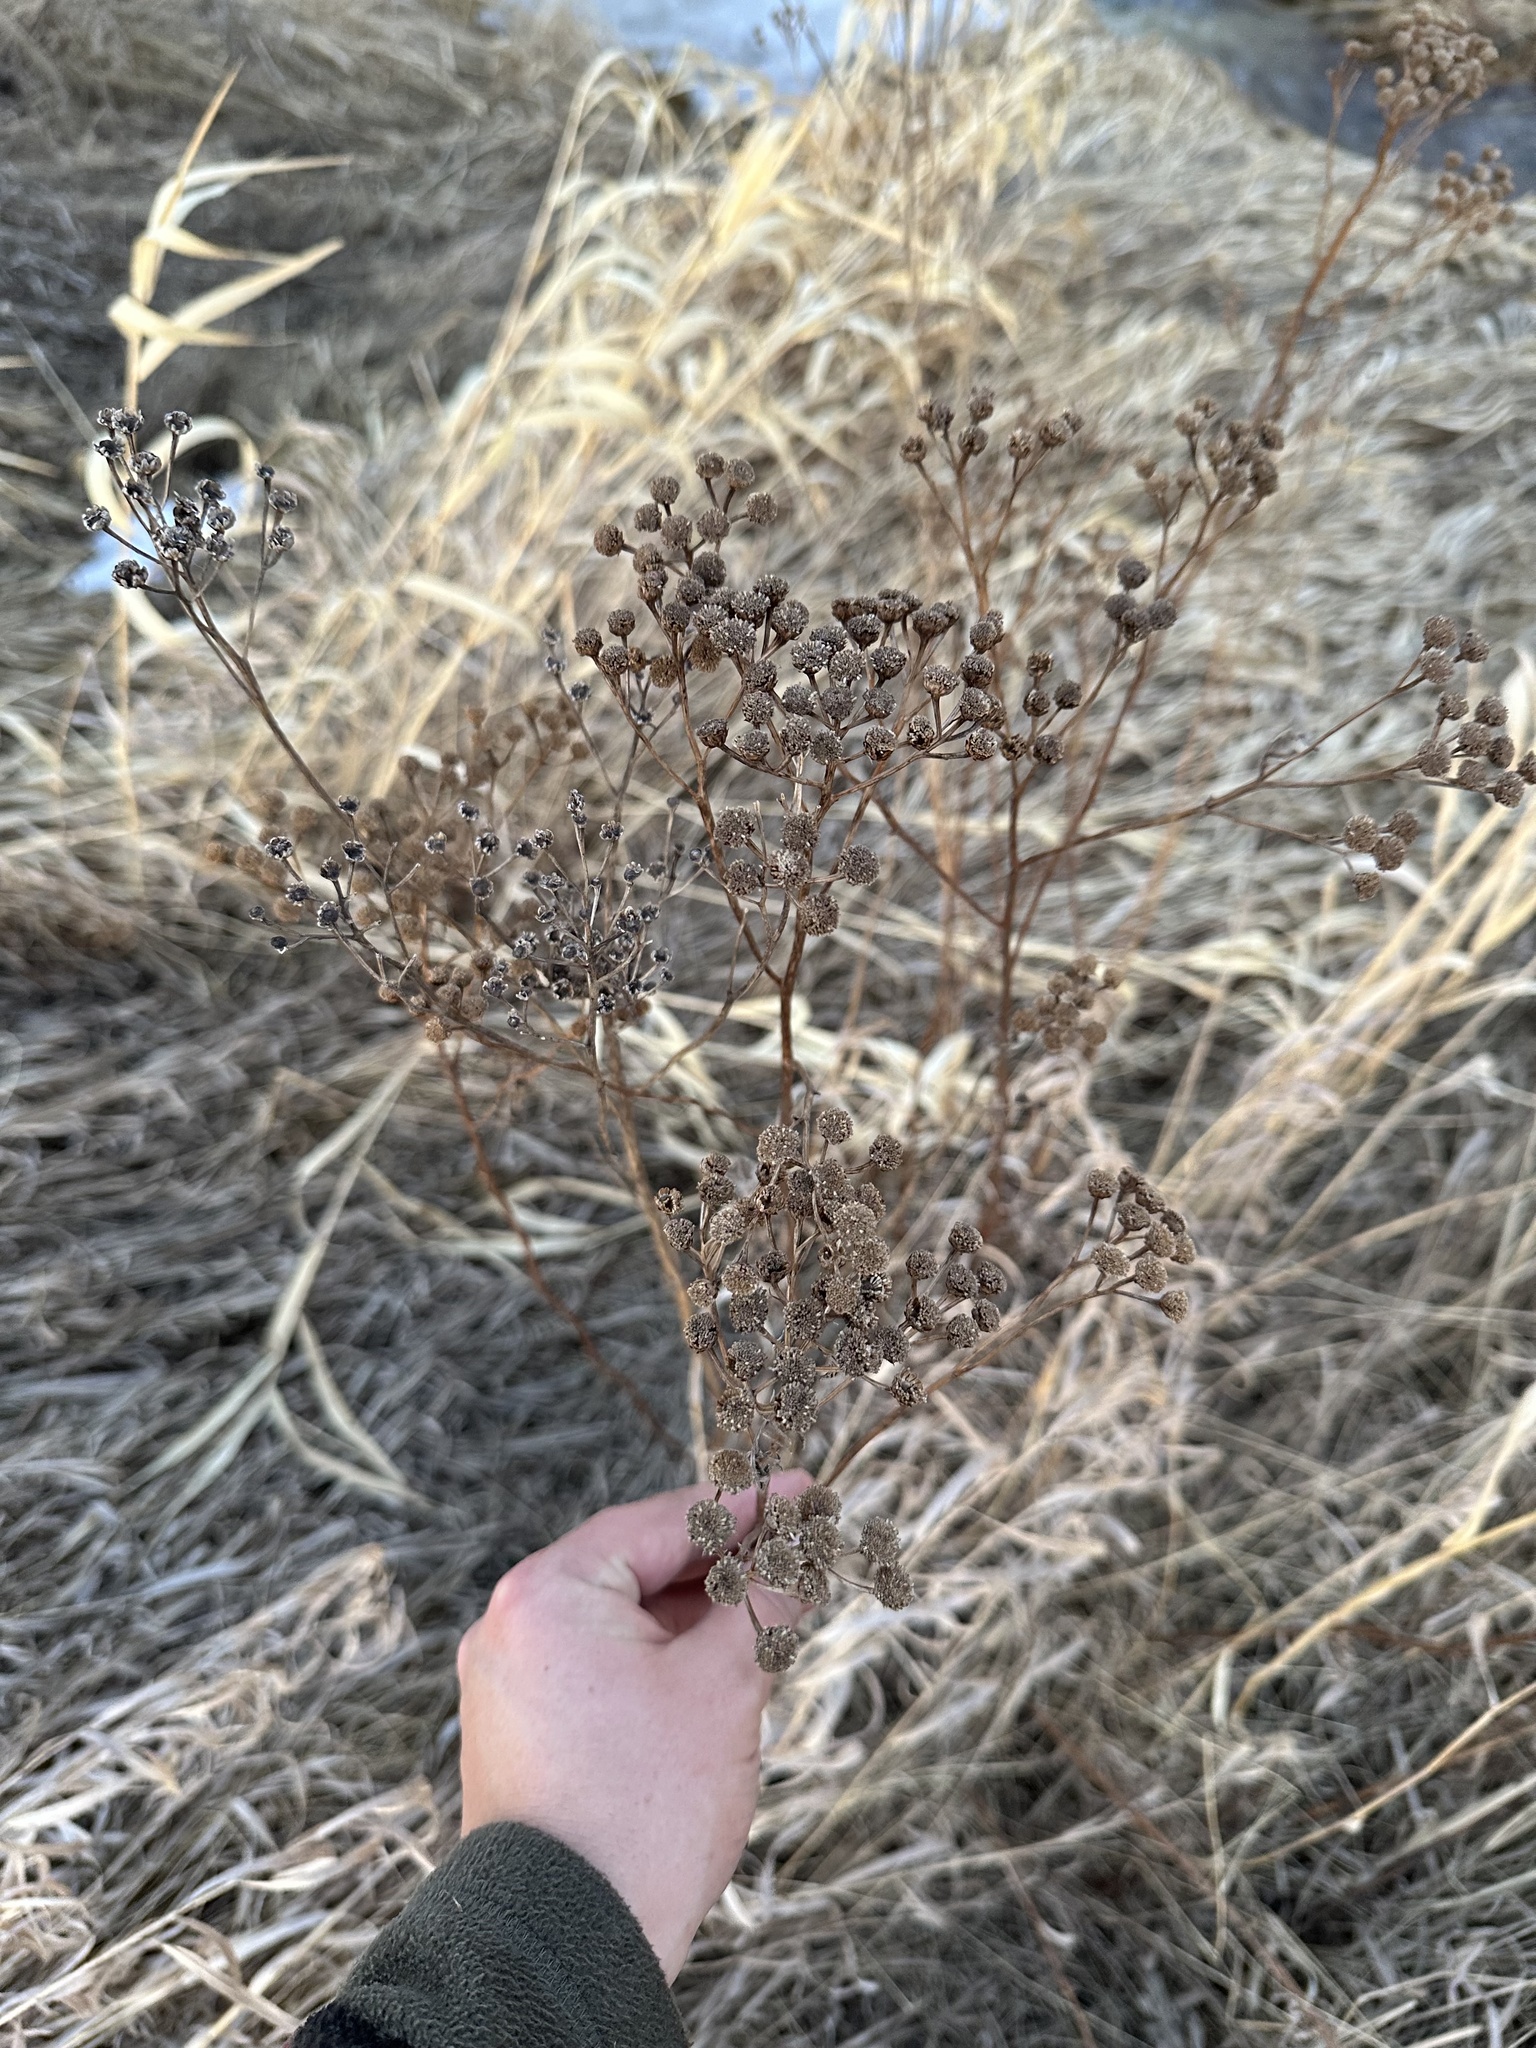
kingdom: Plantae
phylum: Tracheophyta
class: Magnoliopsida
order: Asterales
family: Asteraceae
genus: Tanacetum
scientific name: Tanacetum vulgare
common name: Common tansy
